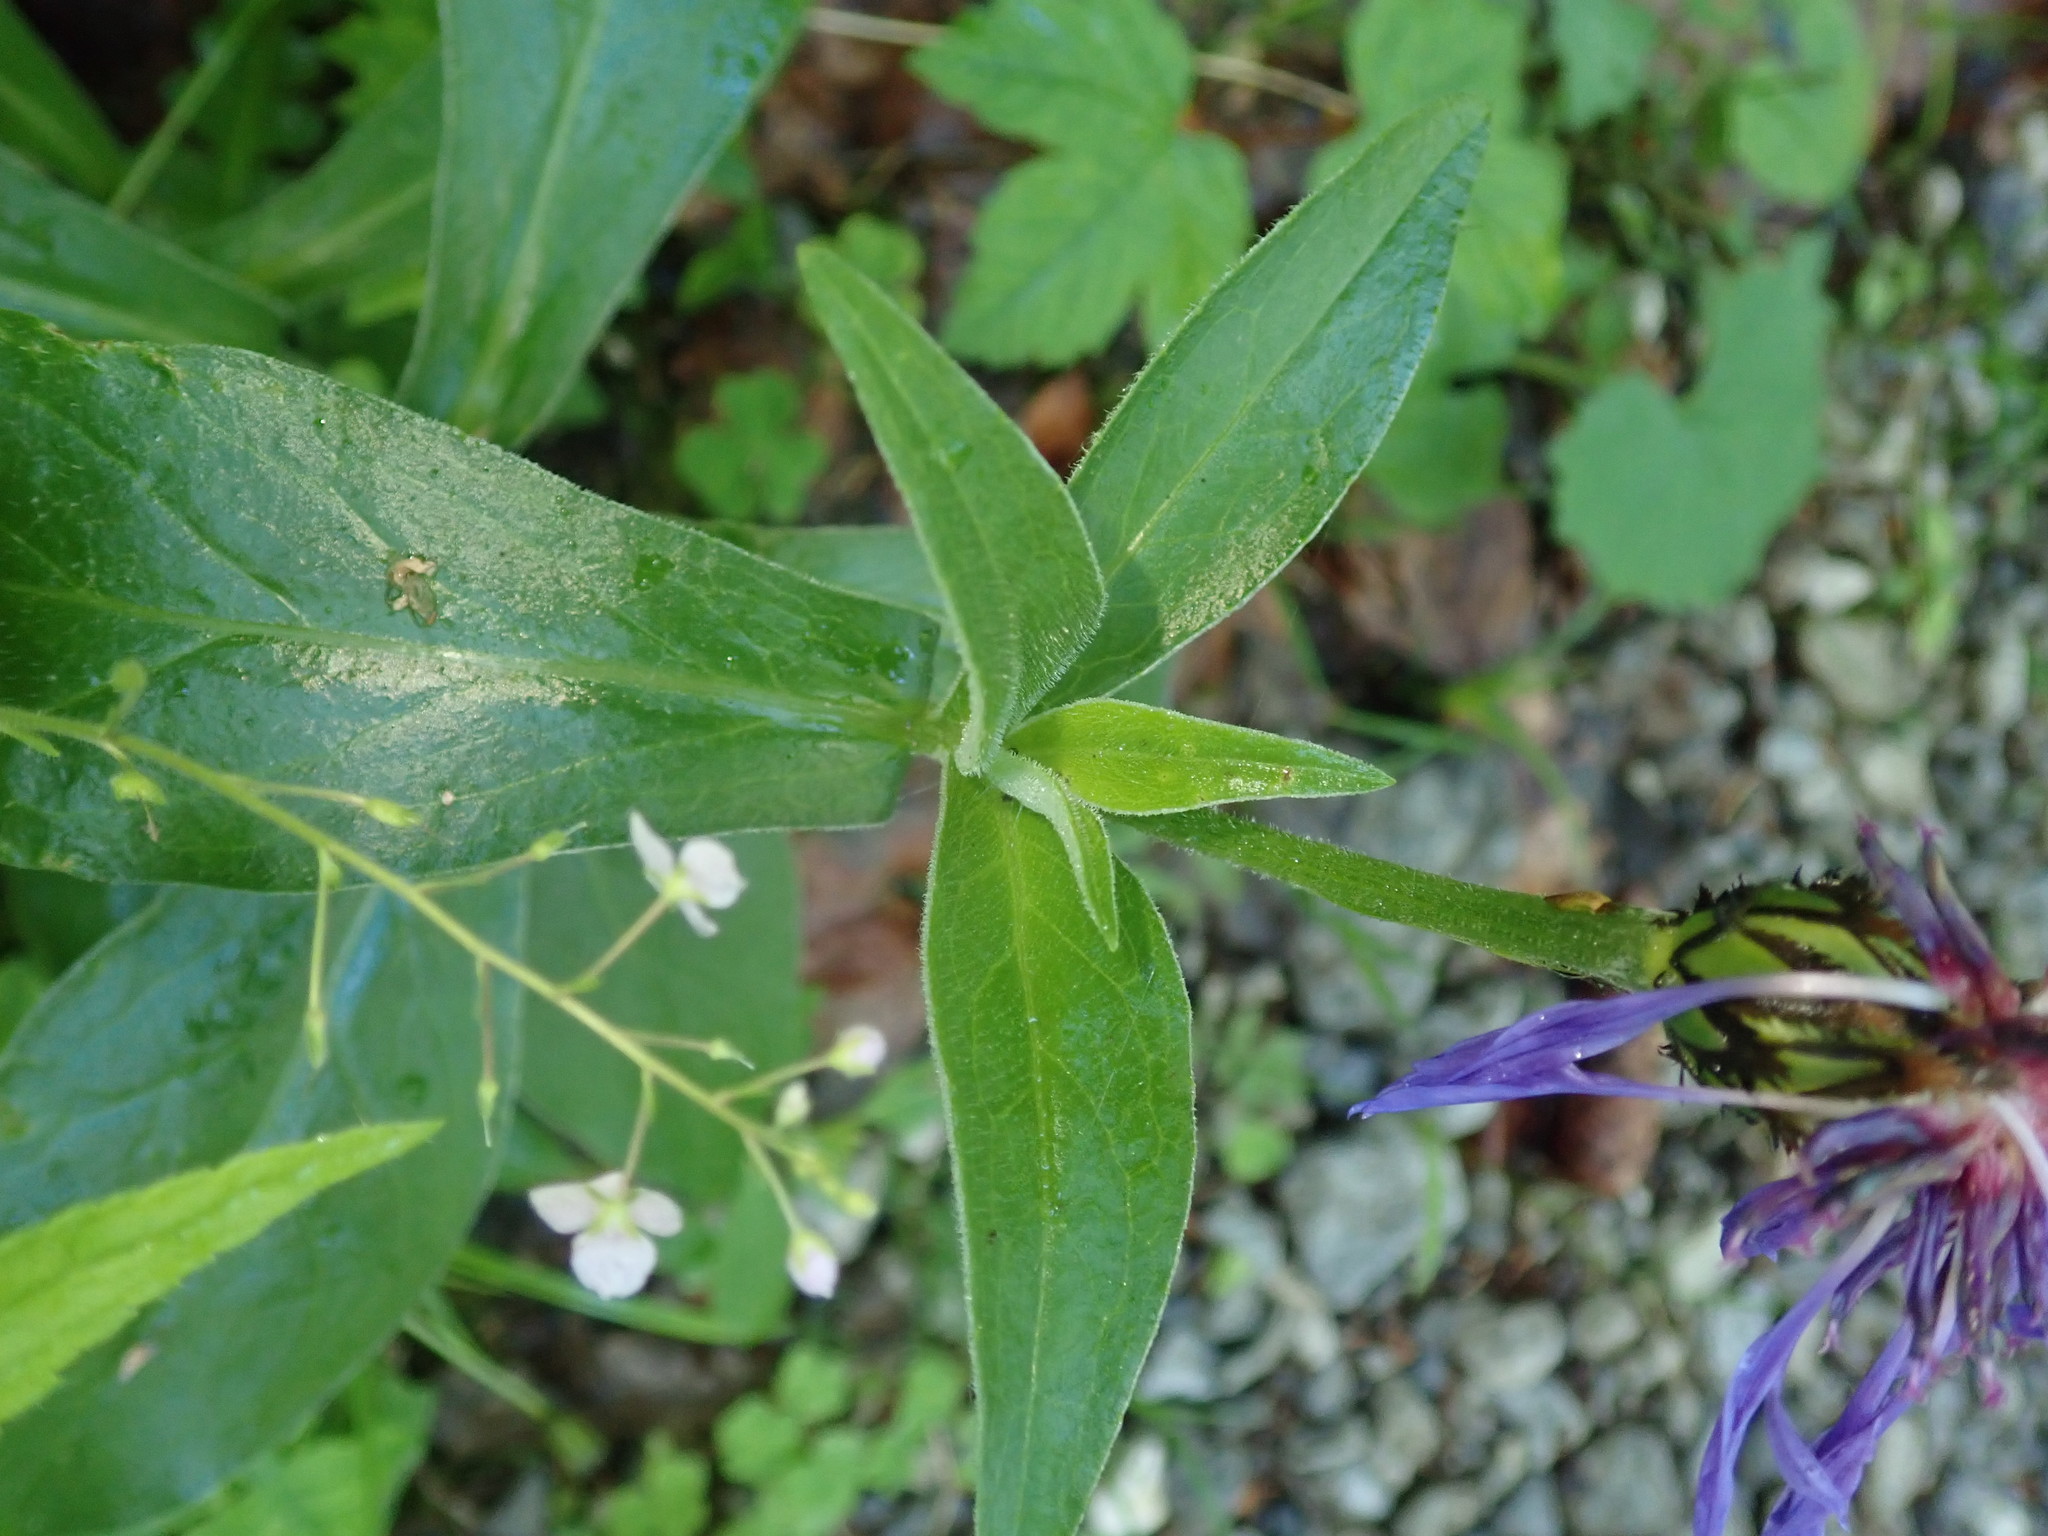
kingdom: Plantae
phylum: Tracheophyta
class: Magnoliopsida
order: Asterales
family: Asteraceae
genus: Centaurea
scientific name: Centaurea montana
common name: Perennial cornflower
